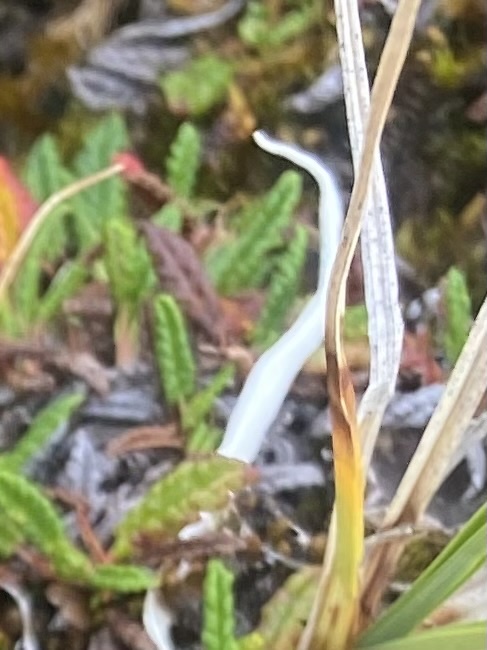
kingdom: Fungi
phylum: Ascomycota
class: Lecanoromycetes
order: Pertusariales
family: Icmadophilaceae
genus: Thamnolia
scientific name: Thamnolia vermicularis
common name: Whiteworm lichen
